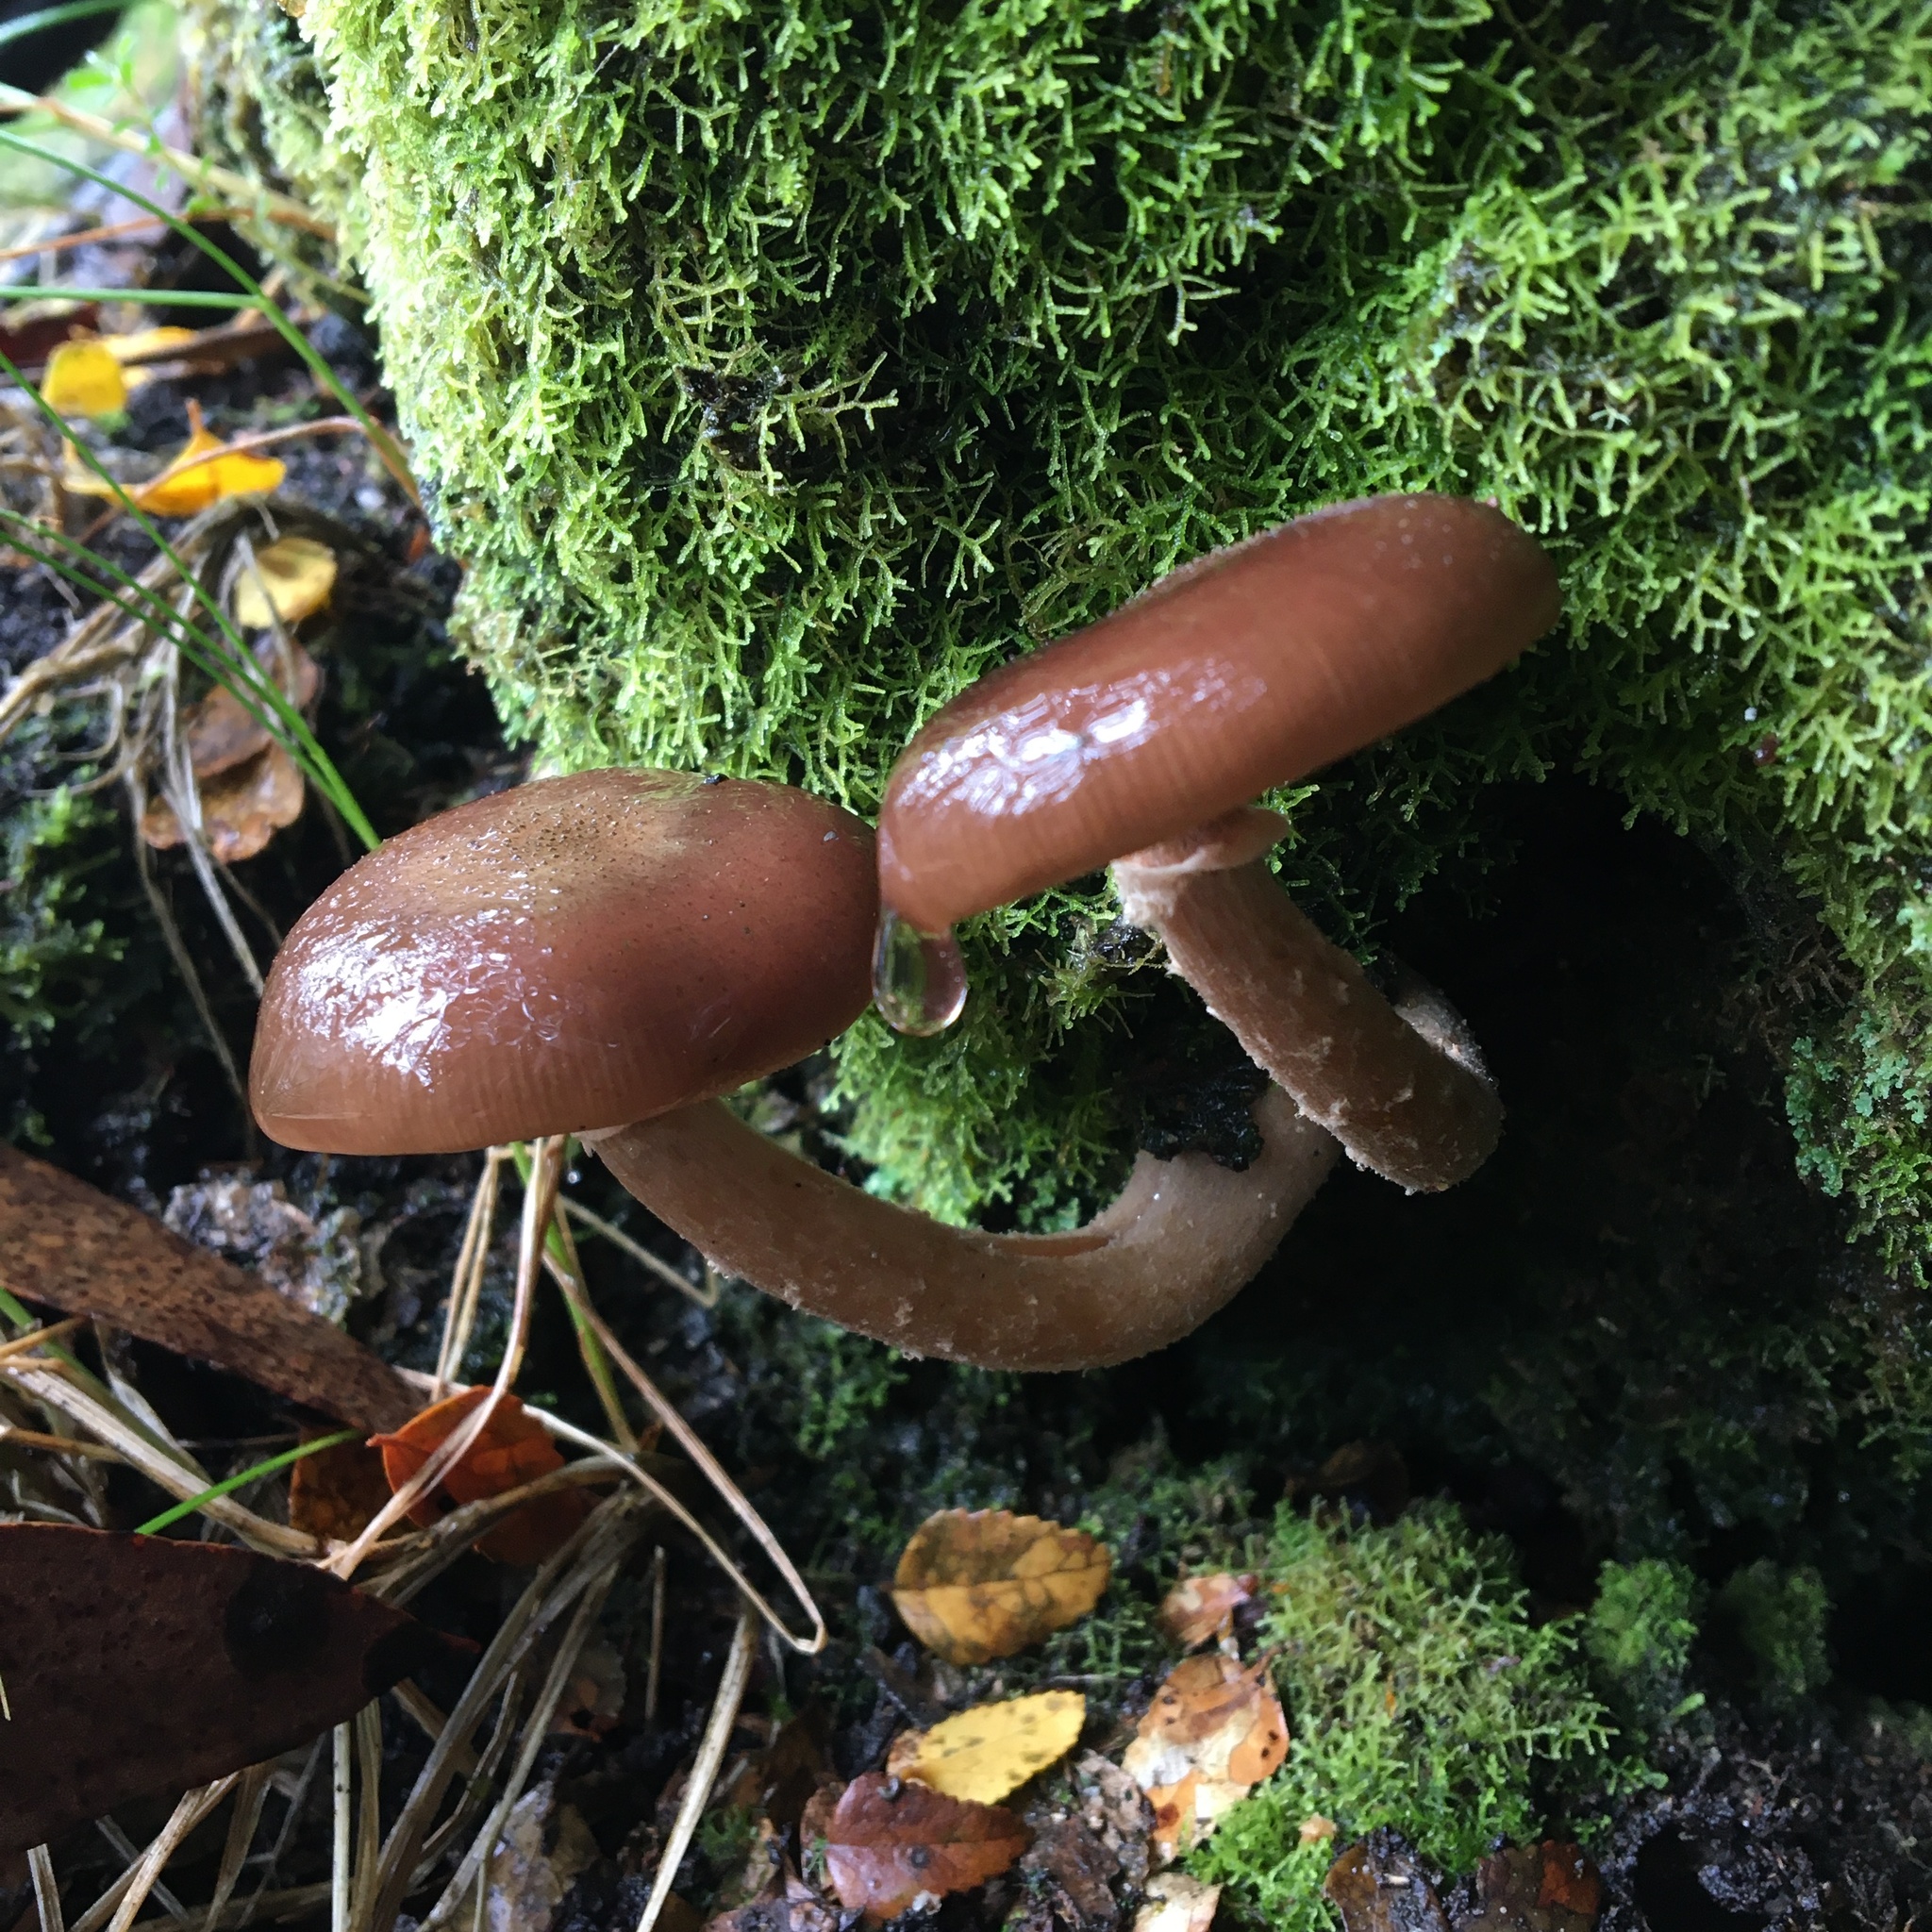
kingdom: Fungi
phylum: Basidiomycota
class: Agaricomycetes
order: Agaricales
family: Physalacriaceae
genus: Armillaria
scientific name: Armillaria novae-zelandiae
